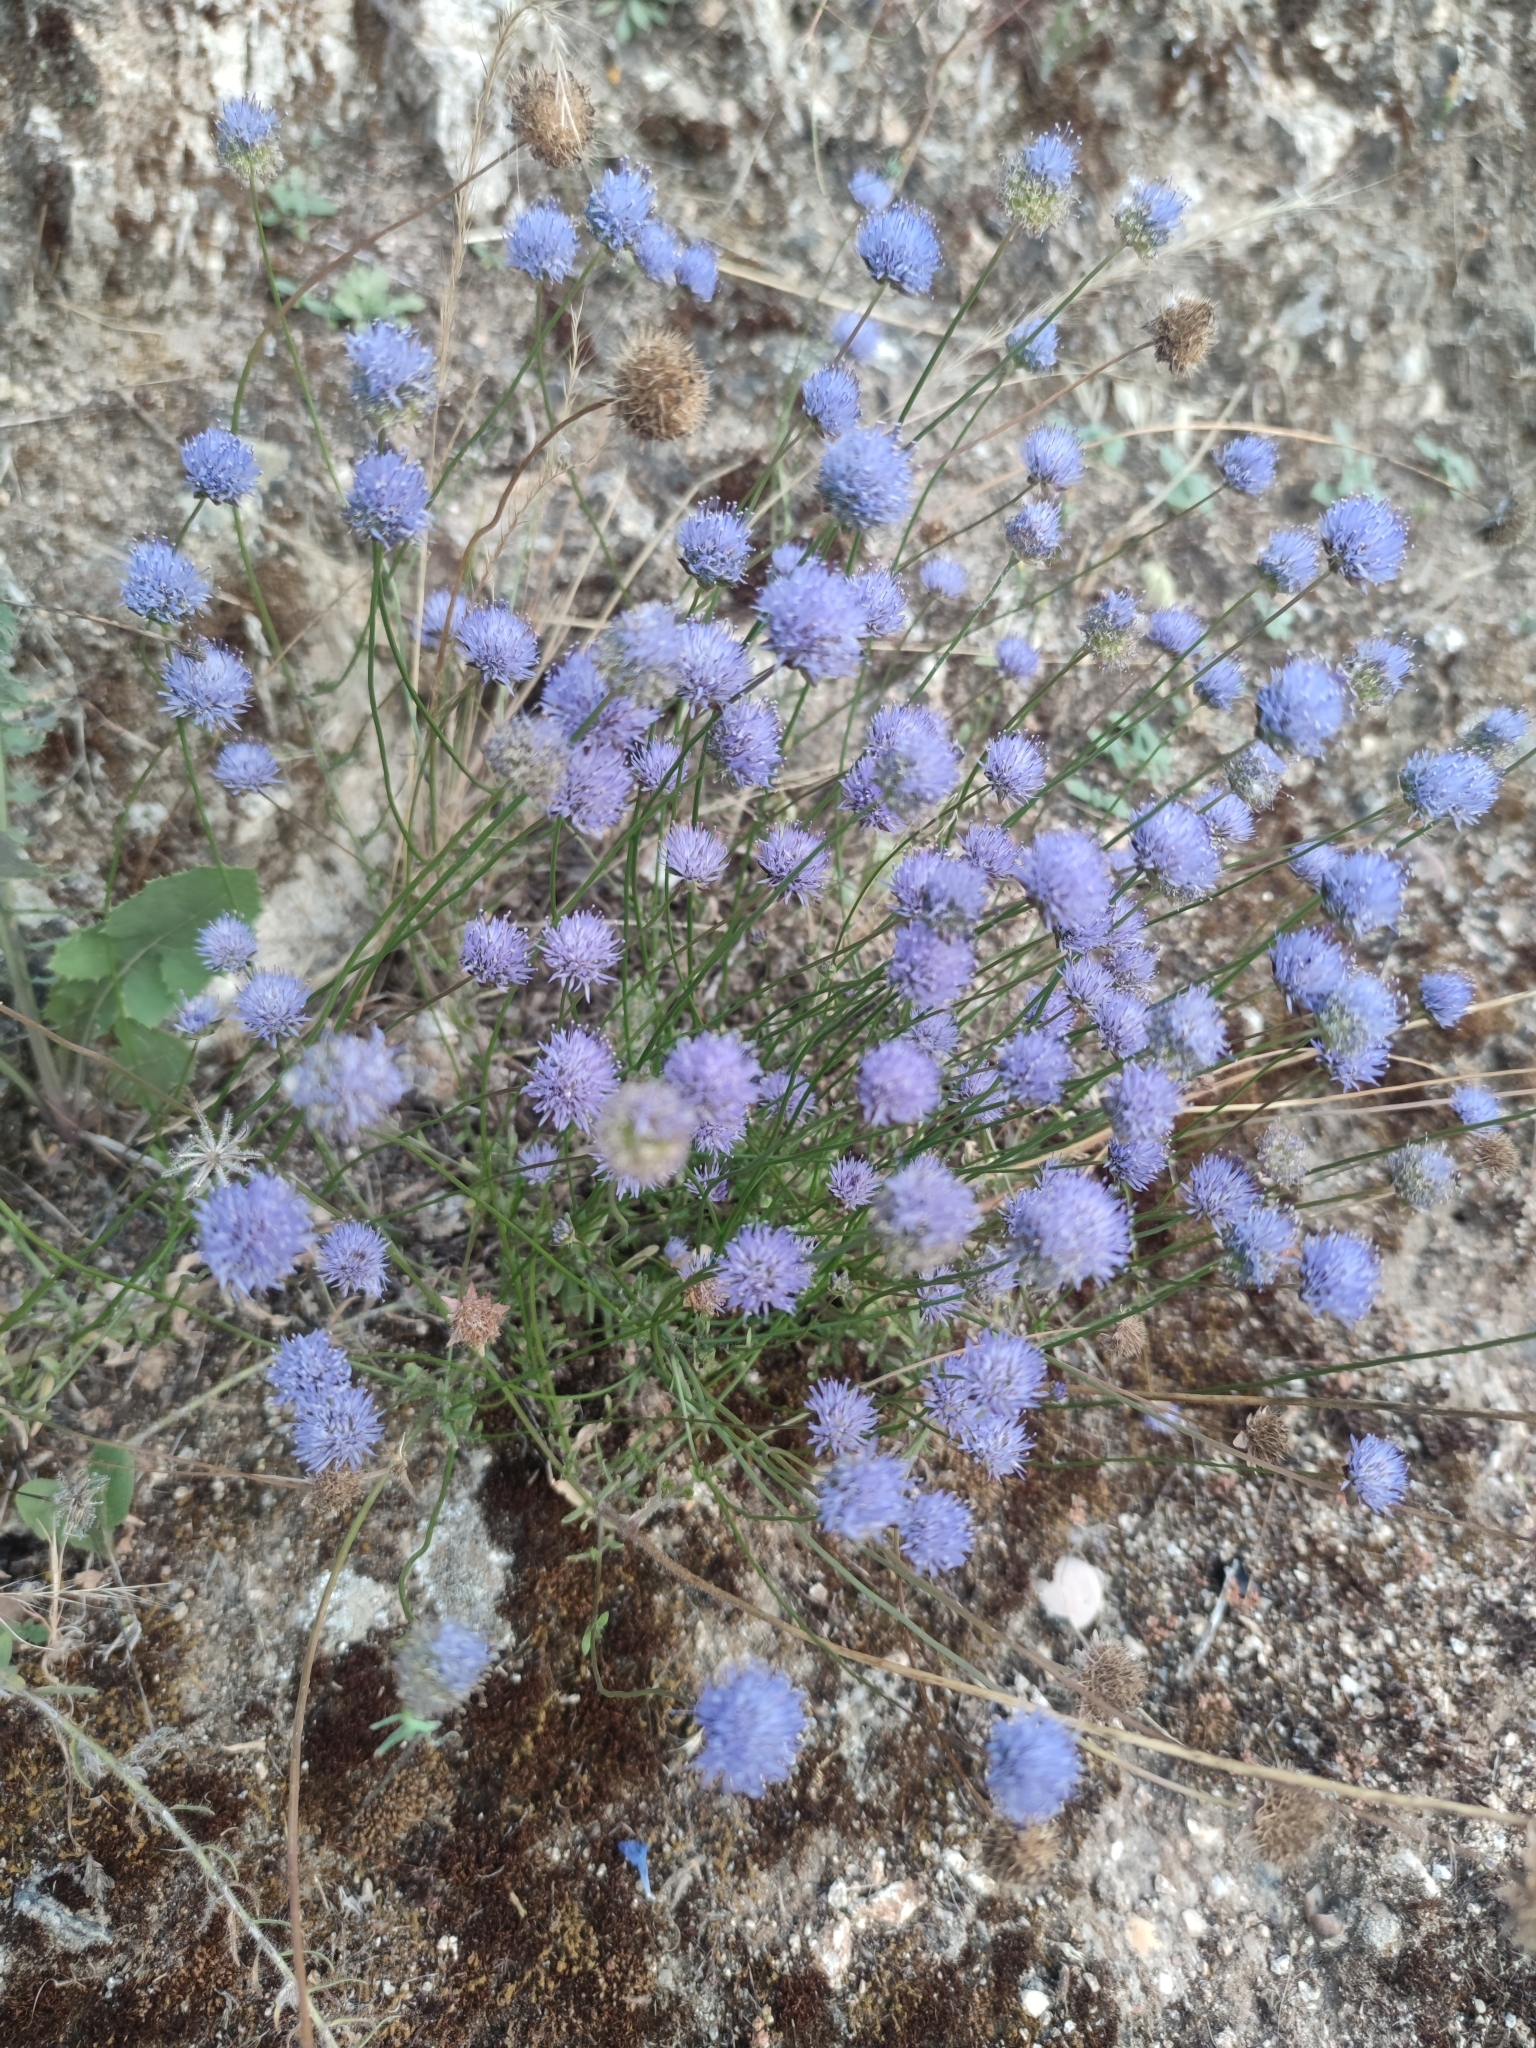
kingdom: Plantae
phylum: Tracheophyta
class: Magnoliopsida
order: Asterales
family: Campanulaceae
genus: Jasione
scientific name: Jasione montana
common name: Sheep's-bit
